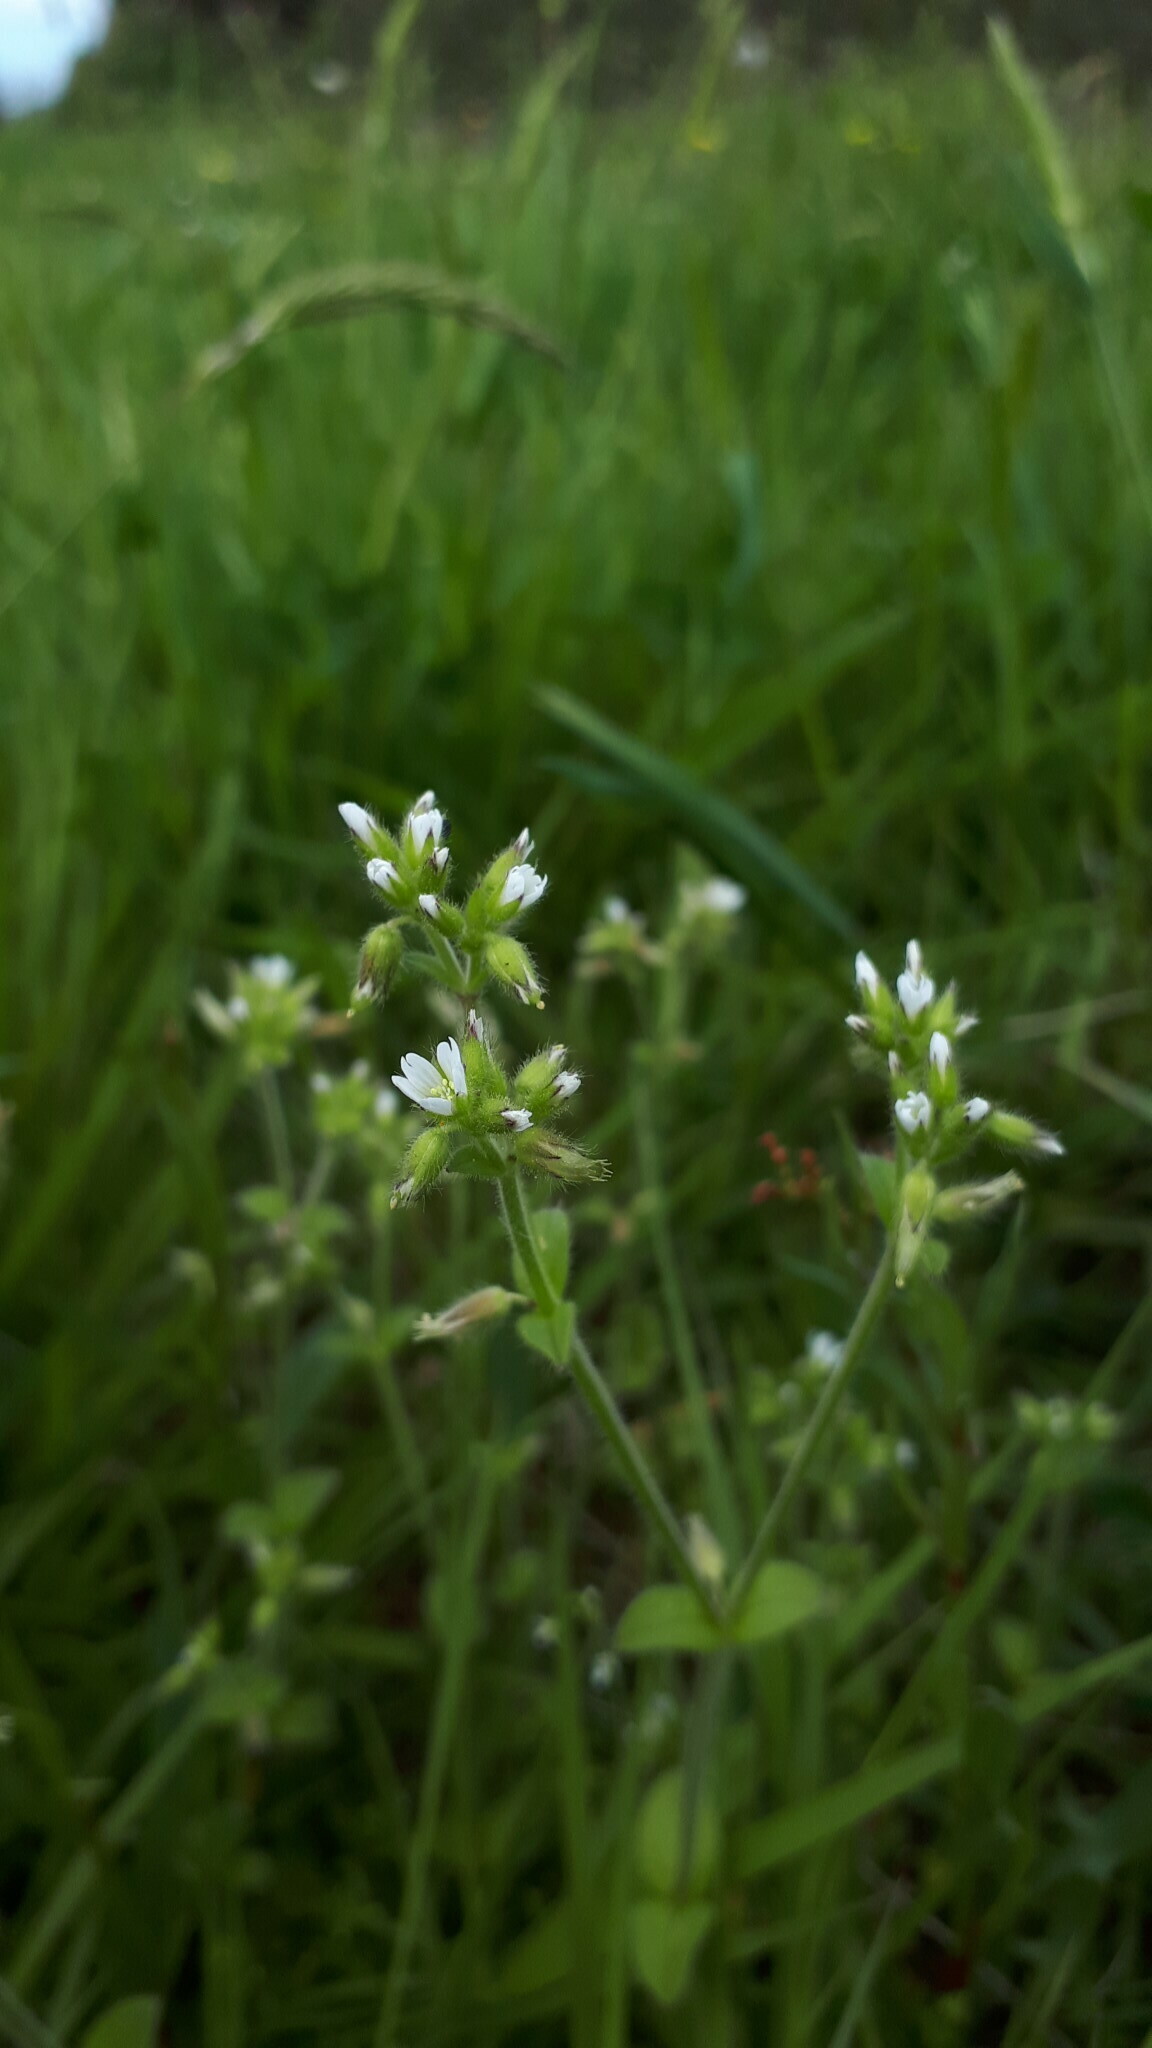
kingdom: Plantae
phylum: Tracheophyta
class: Magnoliopsida
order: Caryophyllales
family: Caryophyllaceae
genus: Cerastium
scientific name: Cerastium glomeratum
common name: Sticky chickweed
